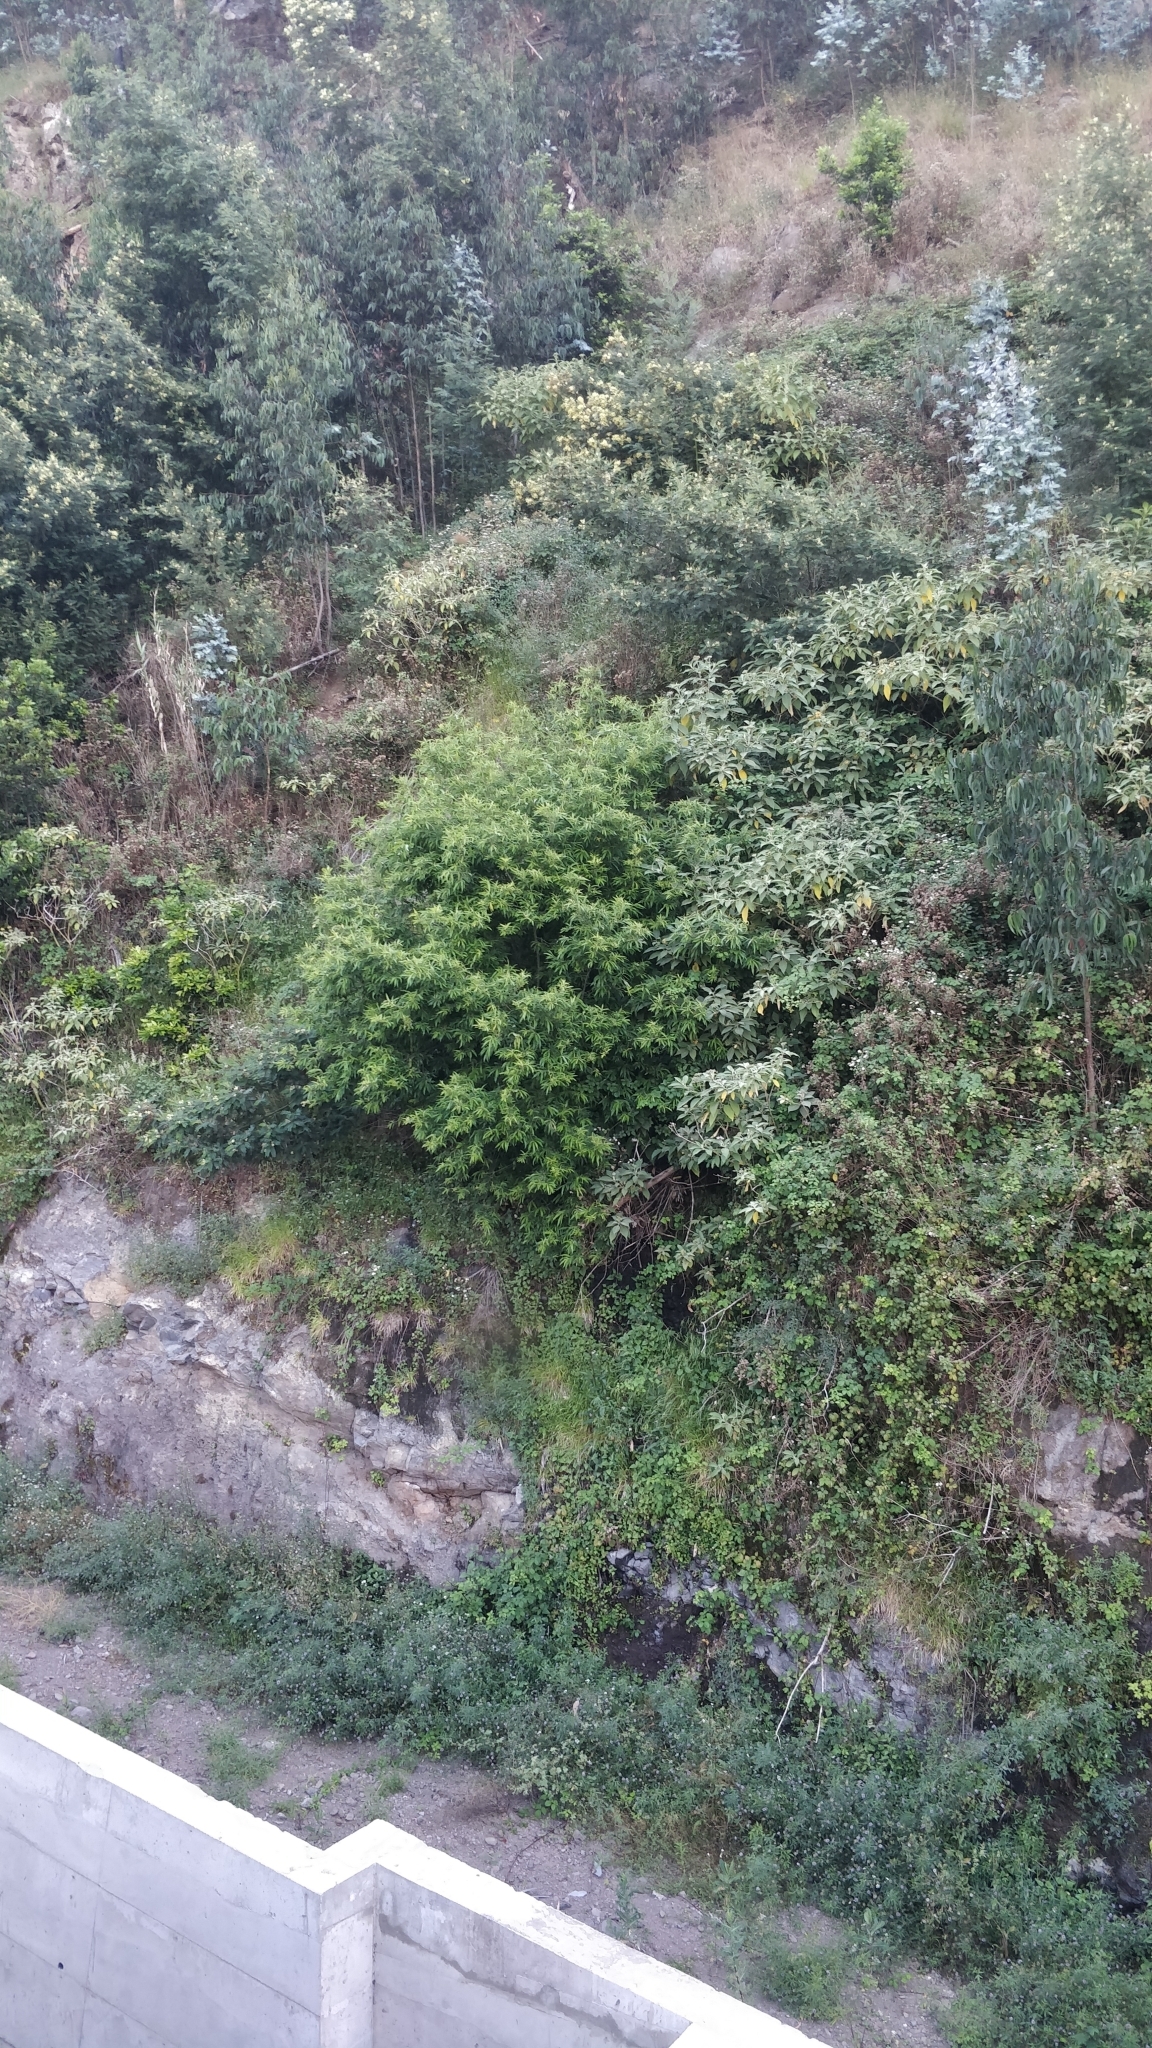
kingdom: Plantae
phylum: Tracheophyta
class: Magnoliopsida
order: Malpighiales
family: Salicaceae
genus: Salix
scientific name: Salix canariensis
